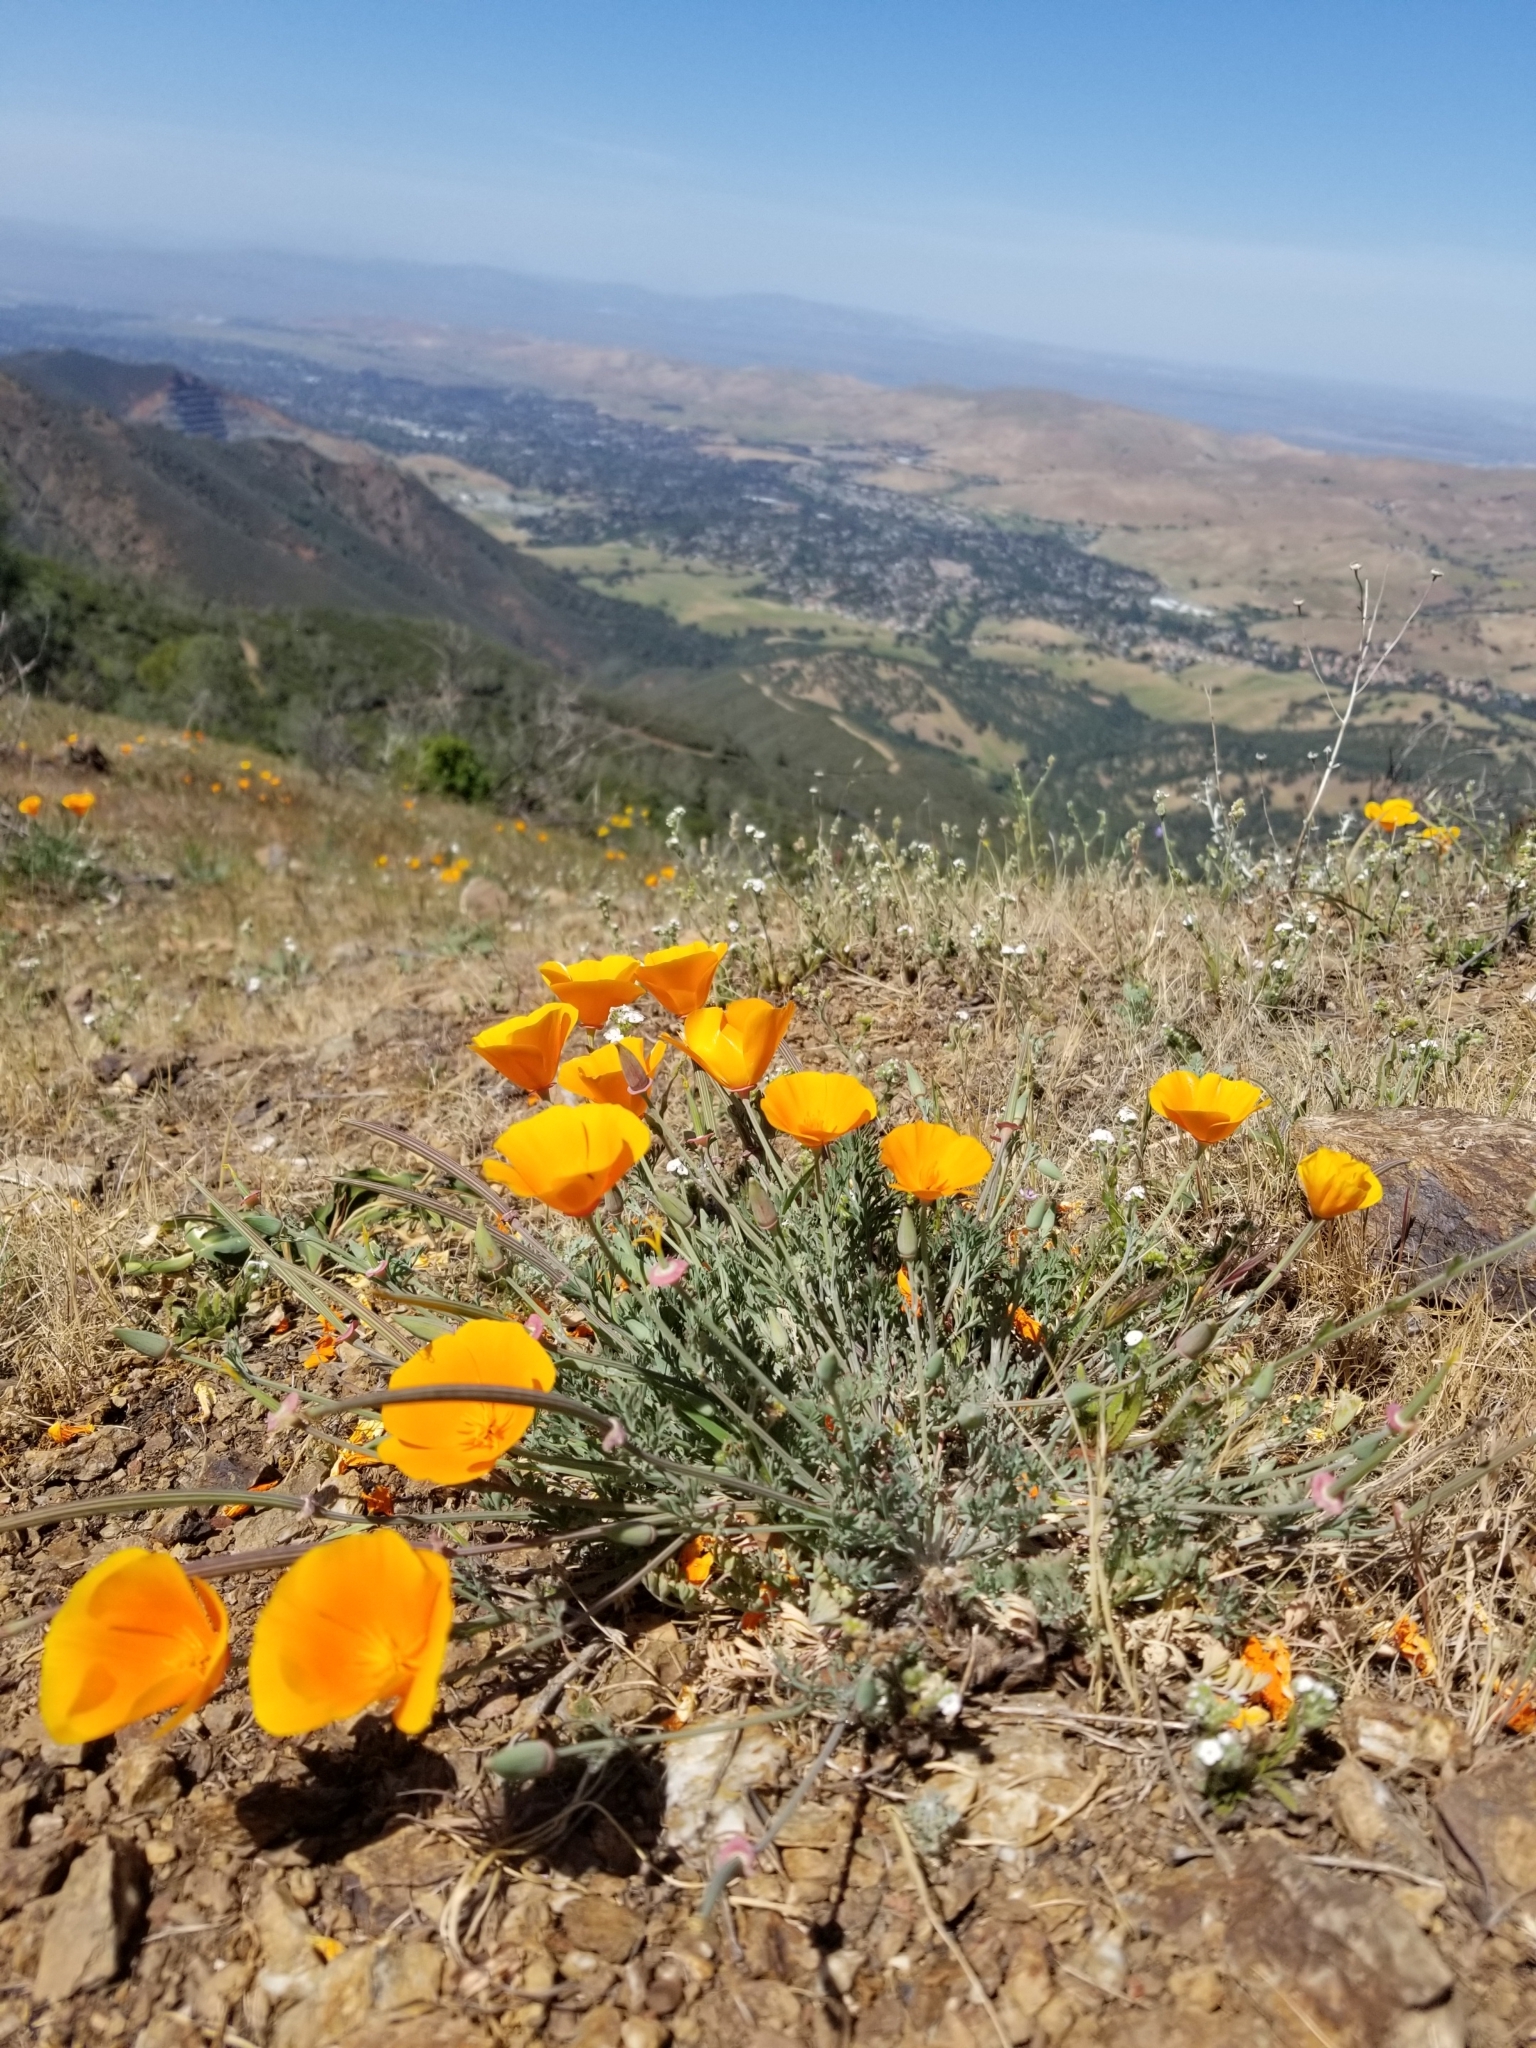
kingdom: Plantae
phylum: Tracheophyta
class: Magnoliopsida
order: Ranunculales
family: Papaveraceae
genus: Eschscholzia
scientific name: Eschscholzia californica
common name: California poppy
